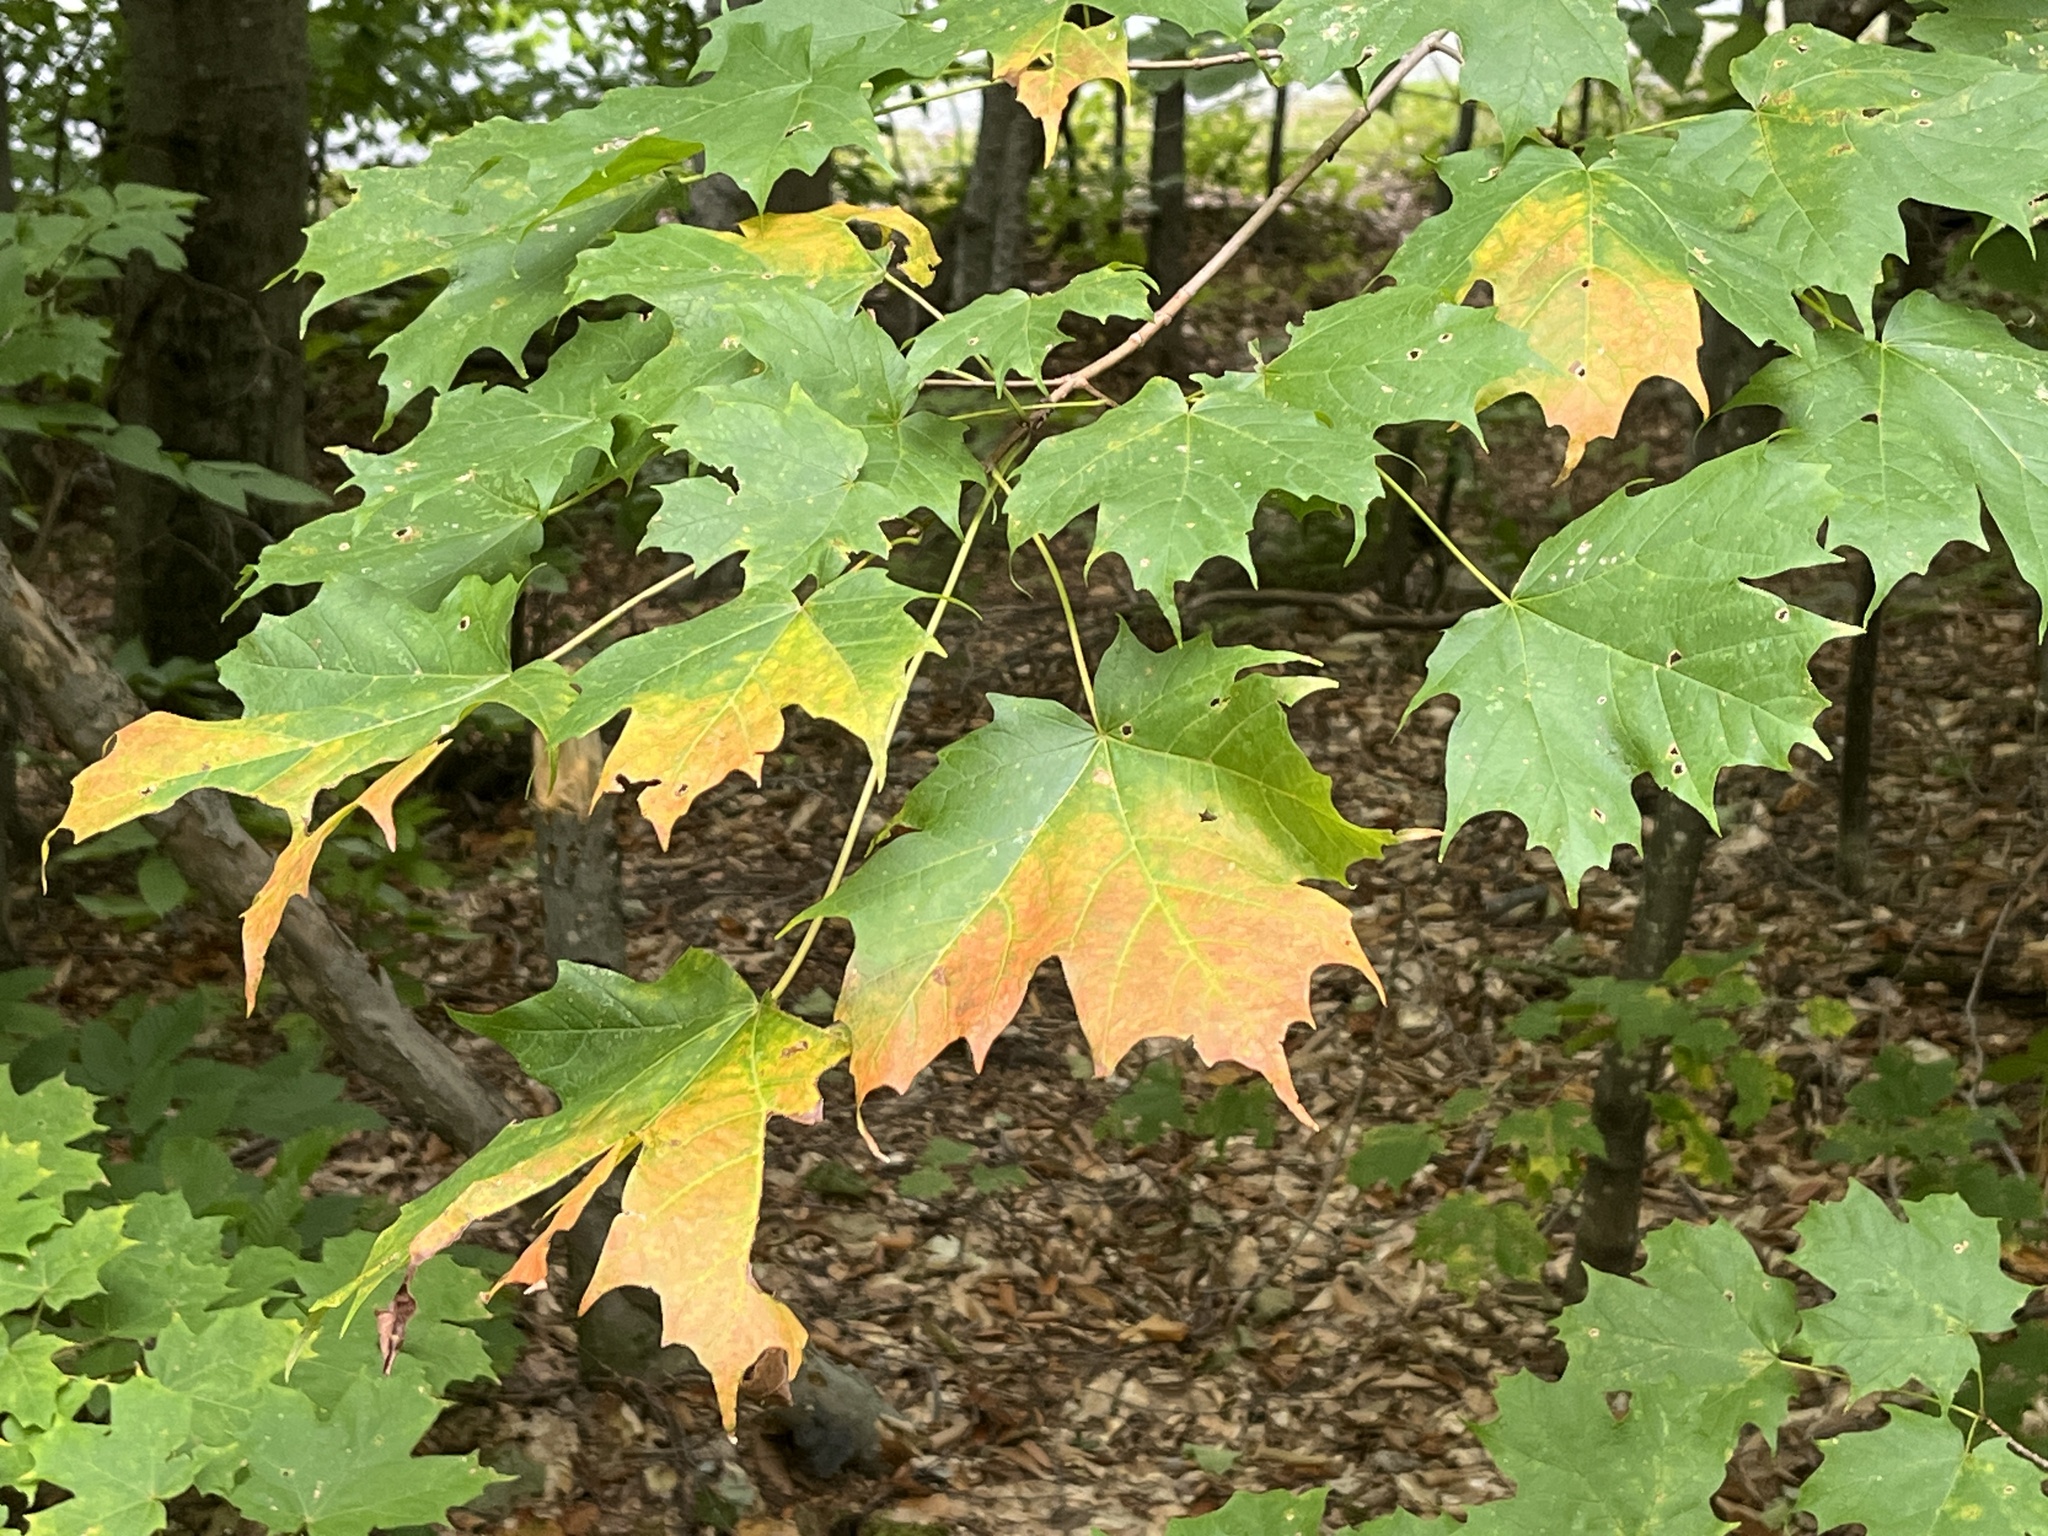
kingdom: Plantae
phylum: Tracheophyta
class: Magnoliopsida
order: Sapindales
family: Sapindaceae
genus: Acer
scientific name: Acer saccharum
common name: Sugar maple
